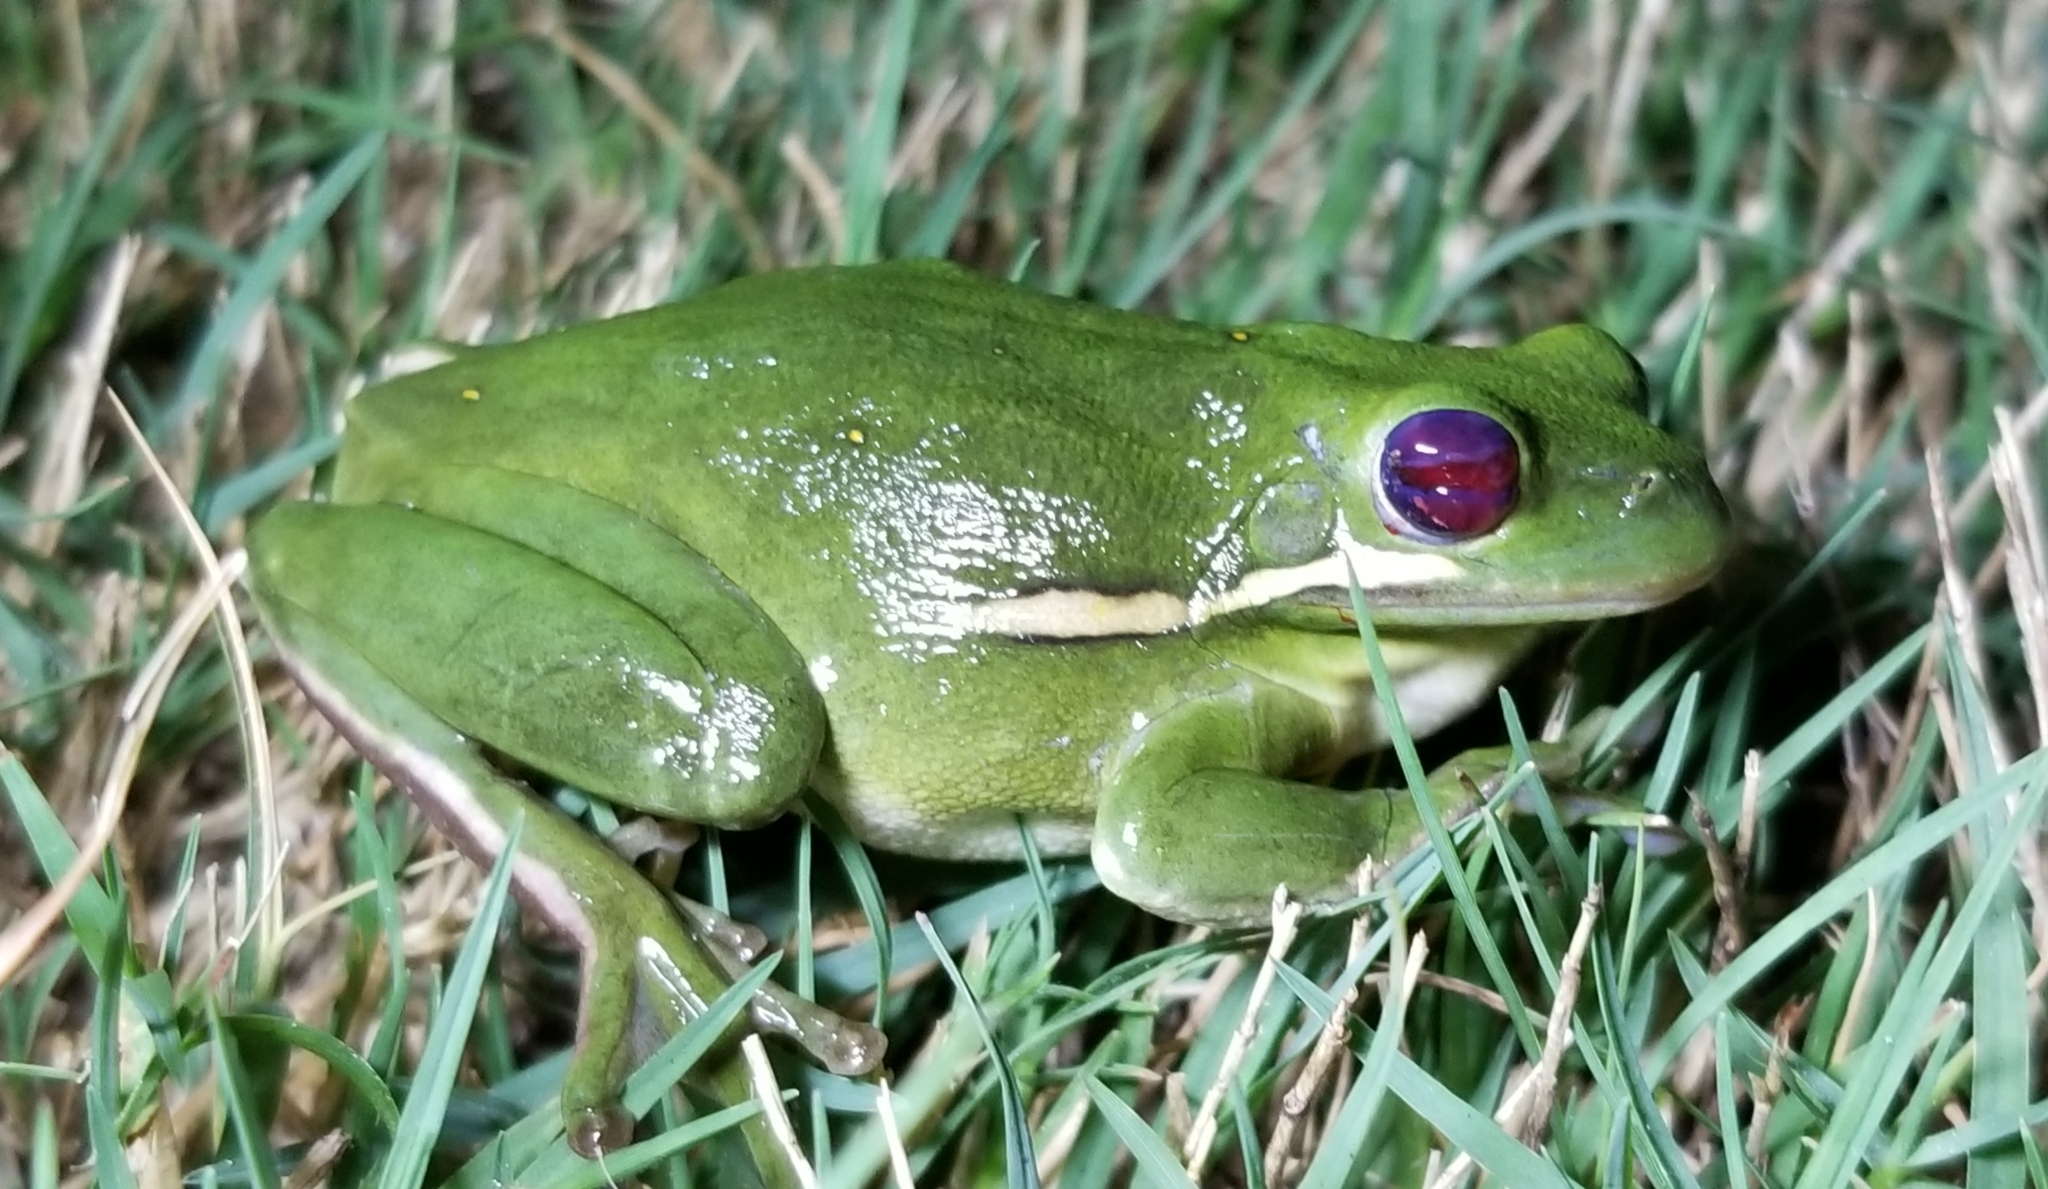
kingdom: Animalia
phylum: Chordata
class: Amphibia
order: Anura
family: Hylidae
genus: Dryophytes
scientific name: Dryophytes cinereus
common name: Green treefrog
